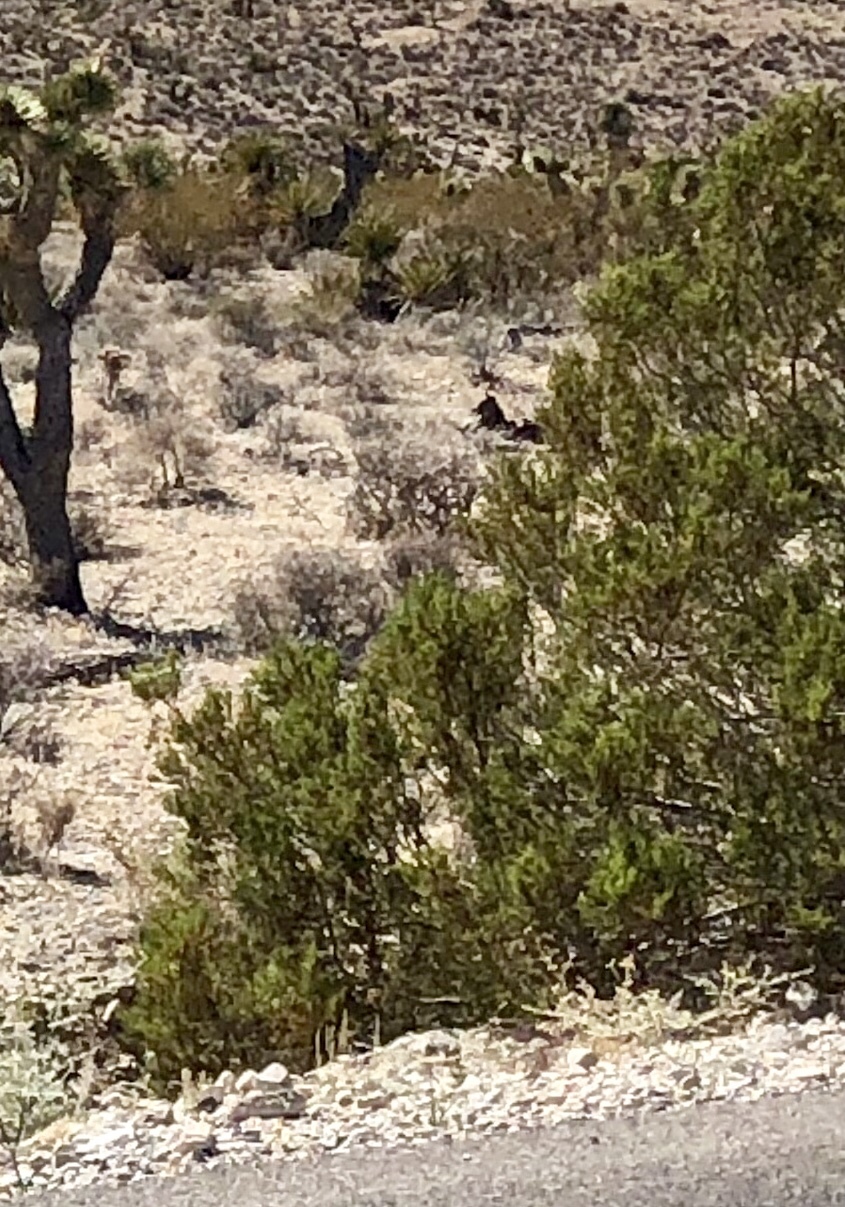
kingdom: Plantae
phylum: Tracheophyta
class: Magnoliopsida
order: Zygophyllales
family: Zygophyllaceae
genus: Larrea
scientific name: Larrea tridentata
